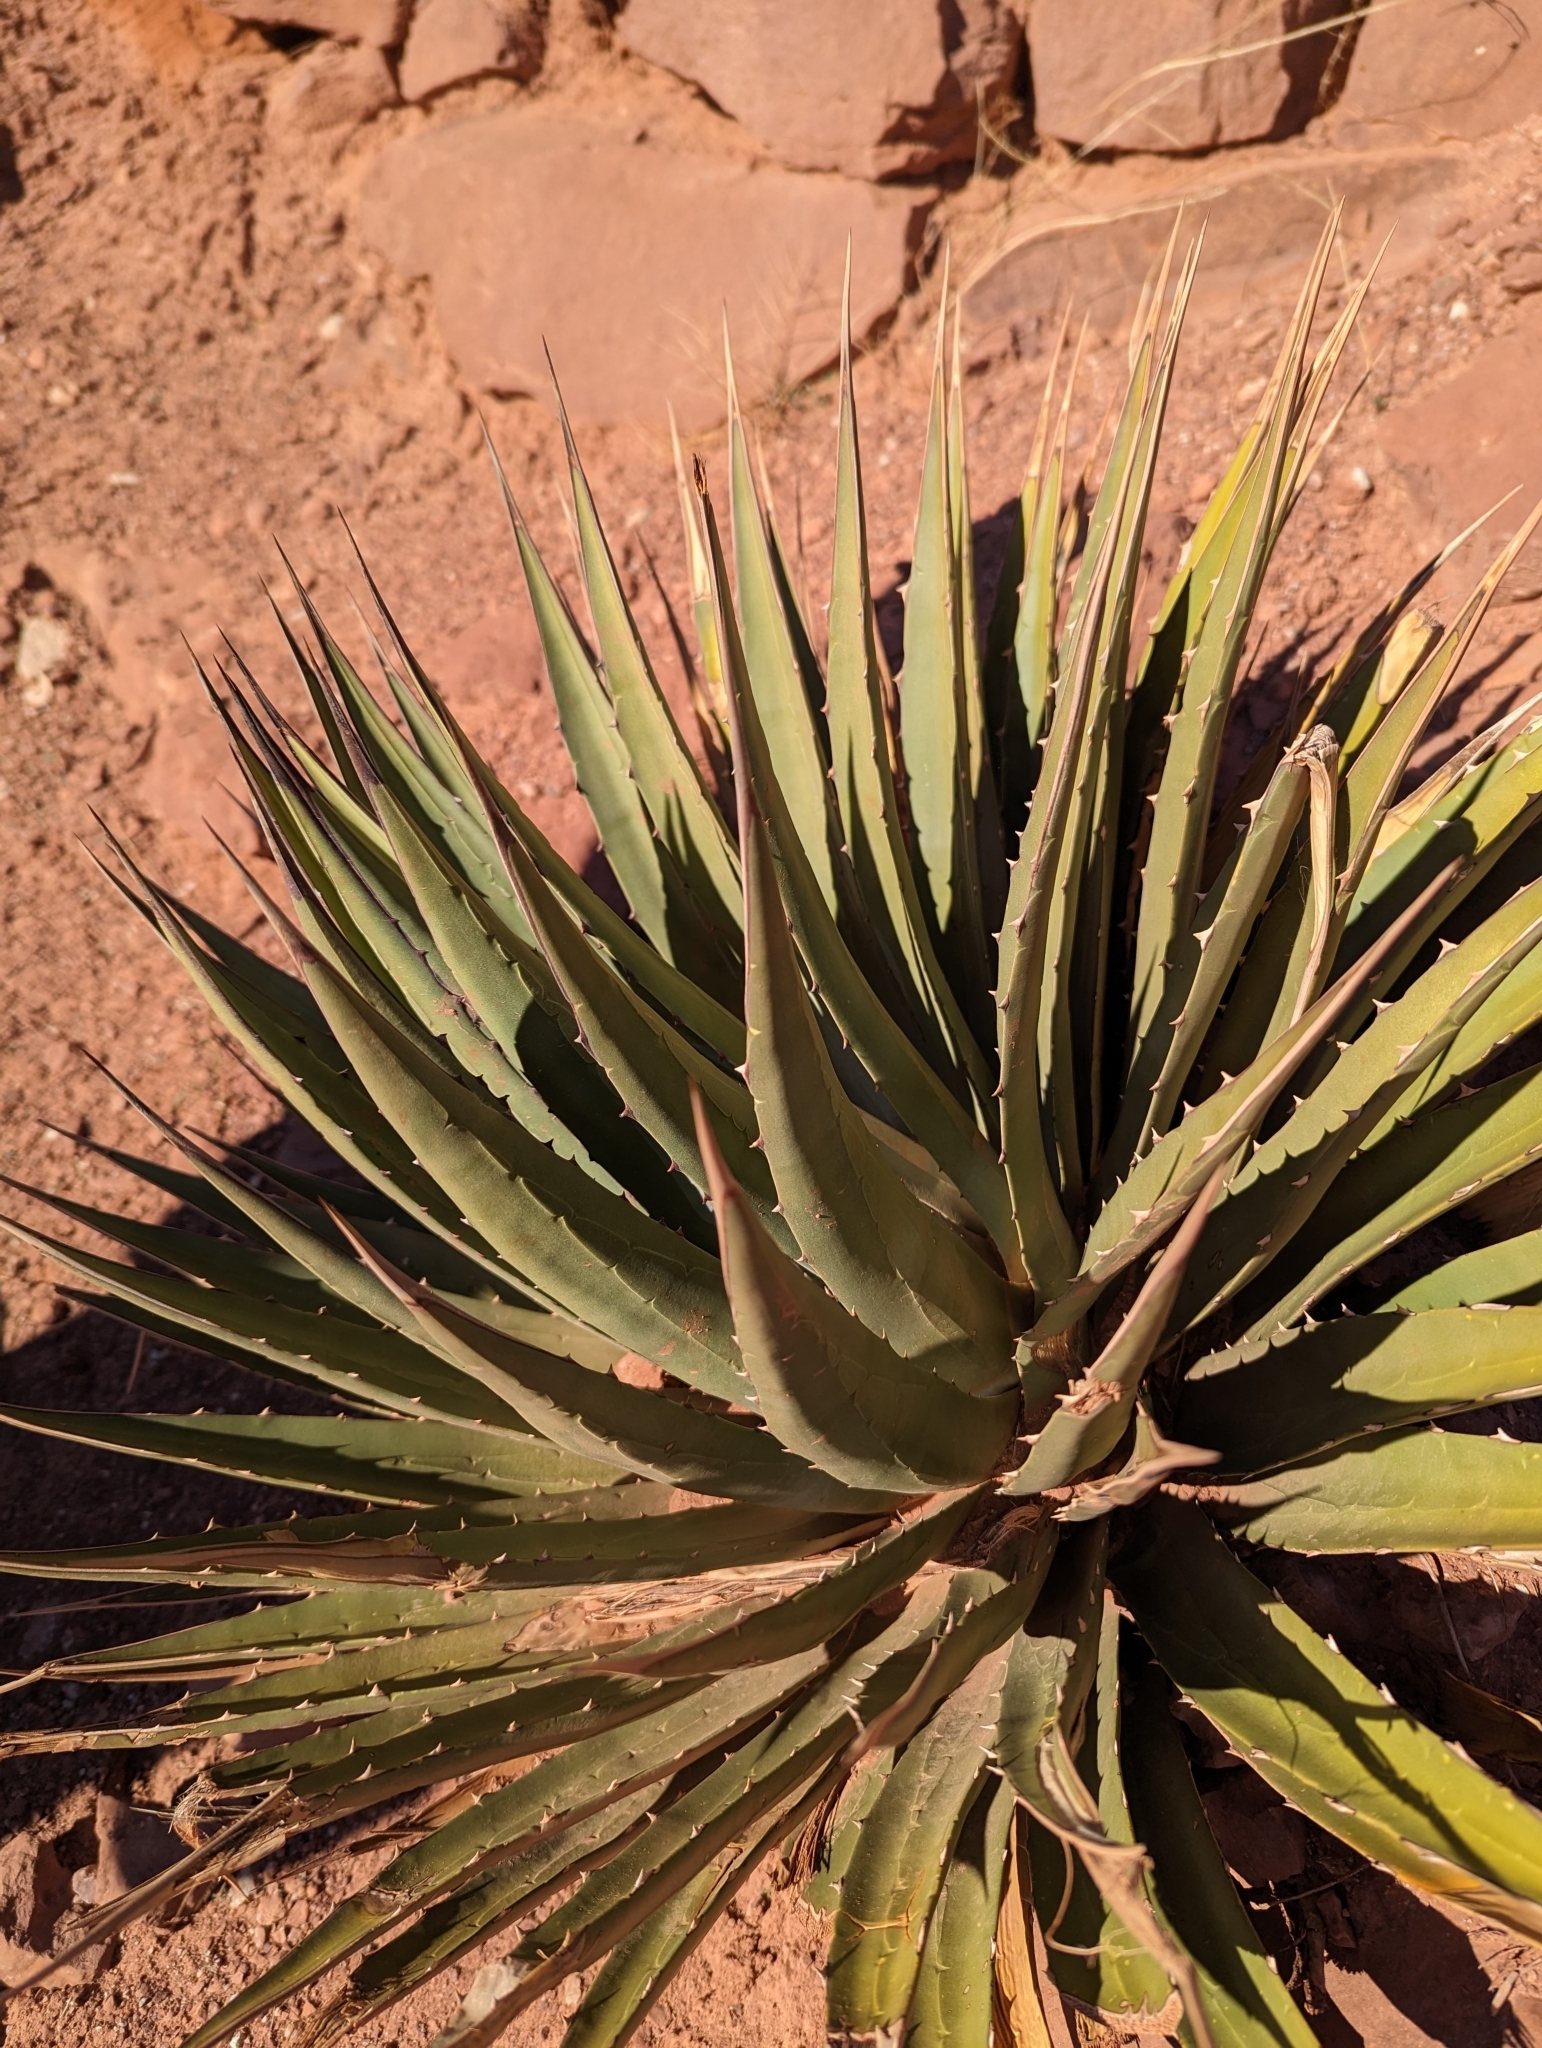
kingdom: Plantae
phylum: Tracheophyta
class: Liliopsida
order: Asparagales
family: Asparagaceae
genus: Agave
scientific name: Agave utahensis
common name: Utah agave
